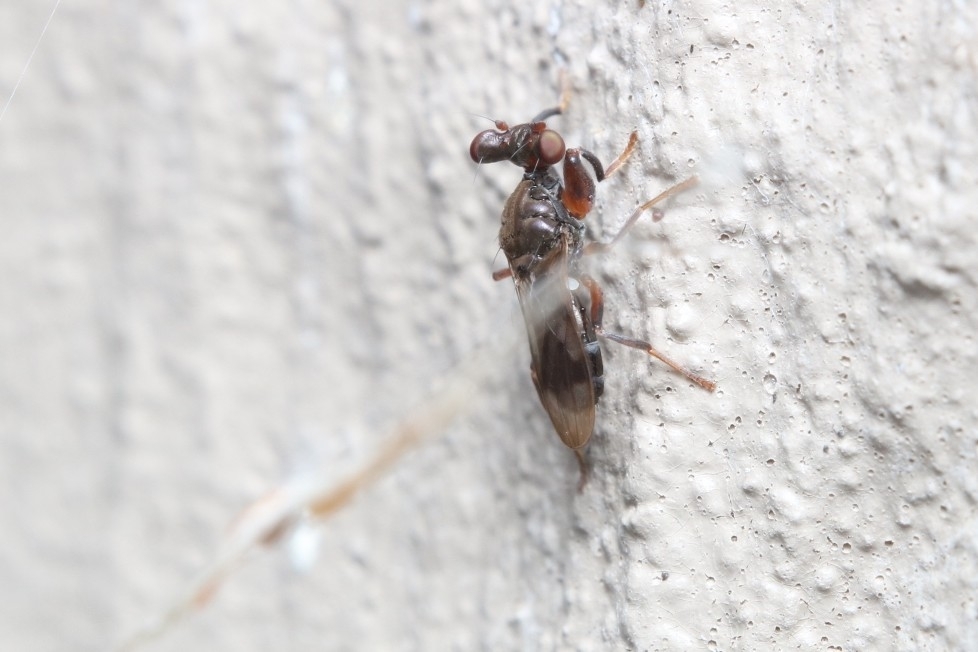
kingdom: Animalia
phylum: Arthropoda
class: Insecta
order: Diptera
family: Diopsidae
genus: Sphyracephala
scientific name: Sphyracephala subbifasciata
